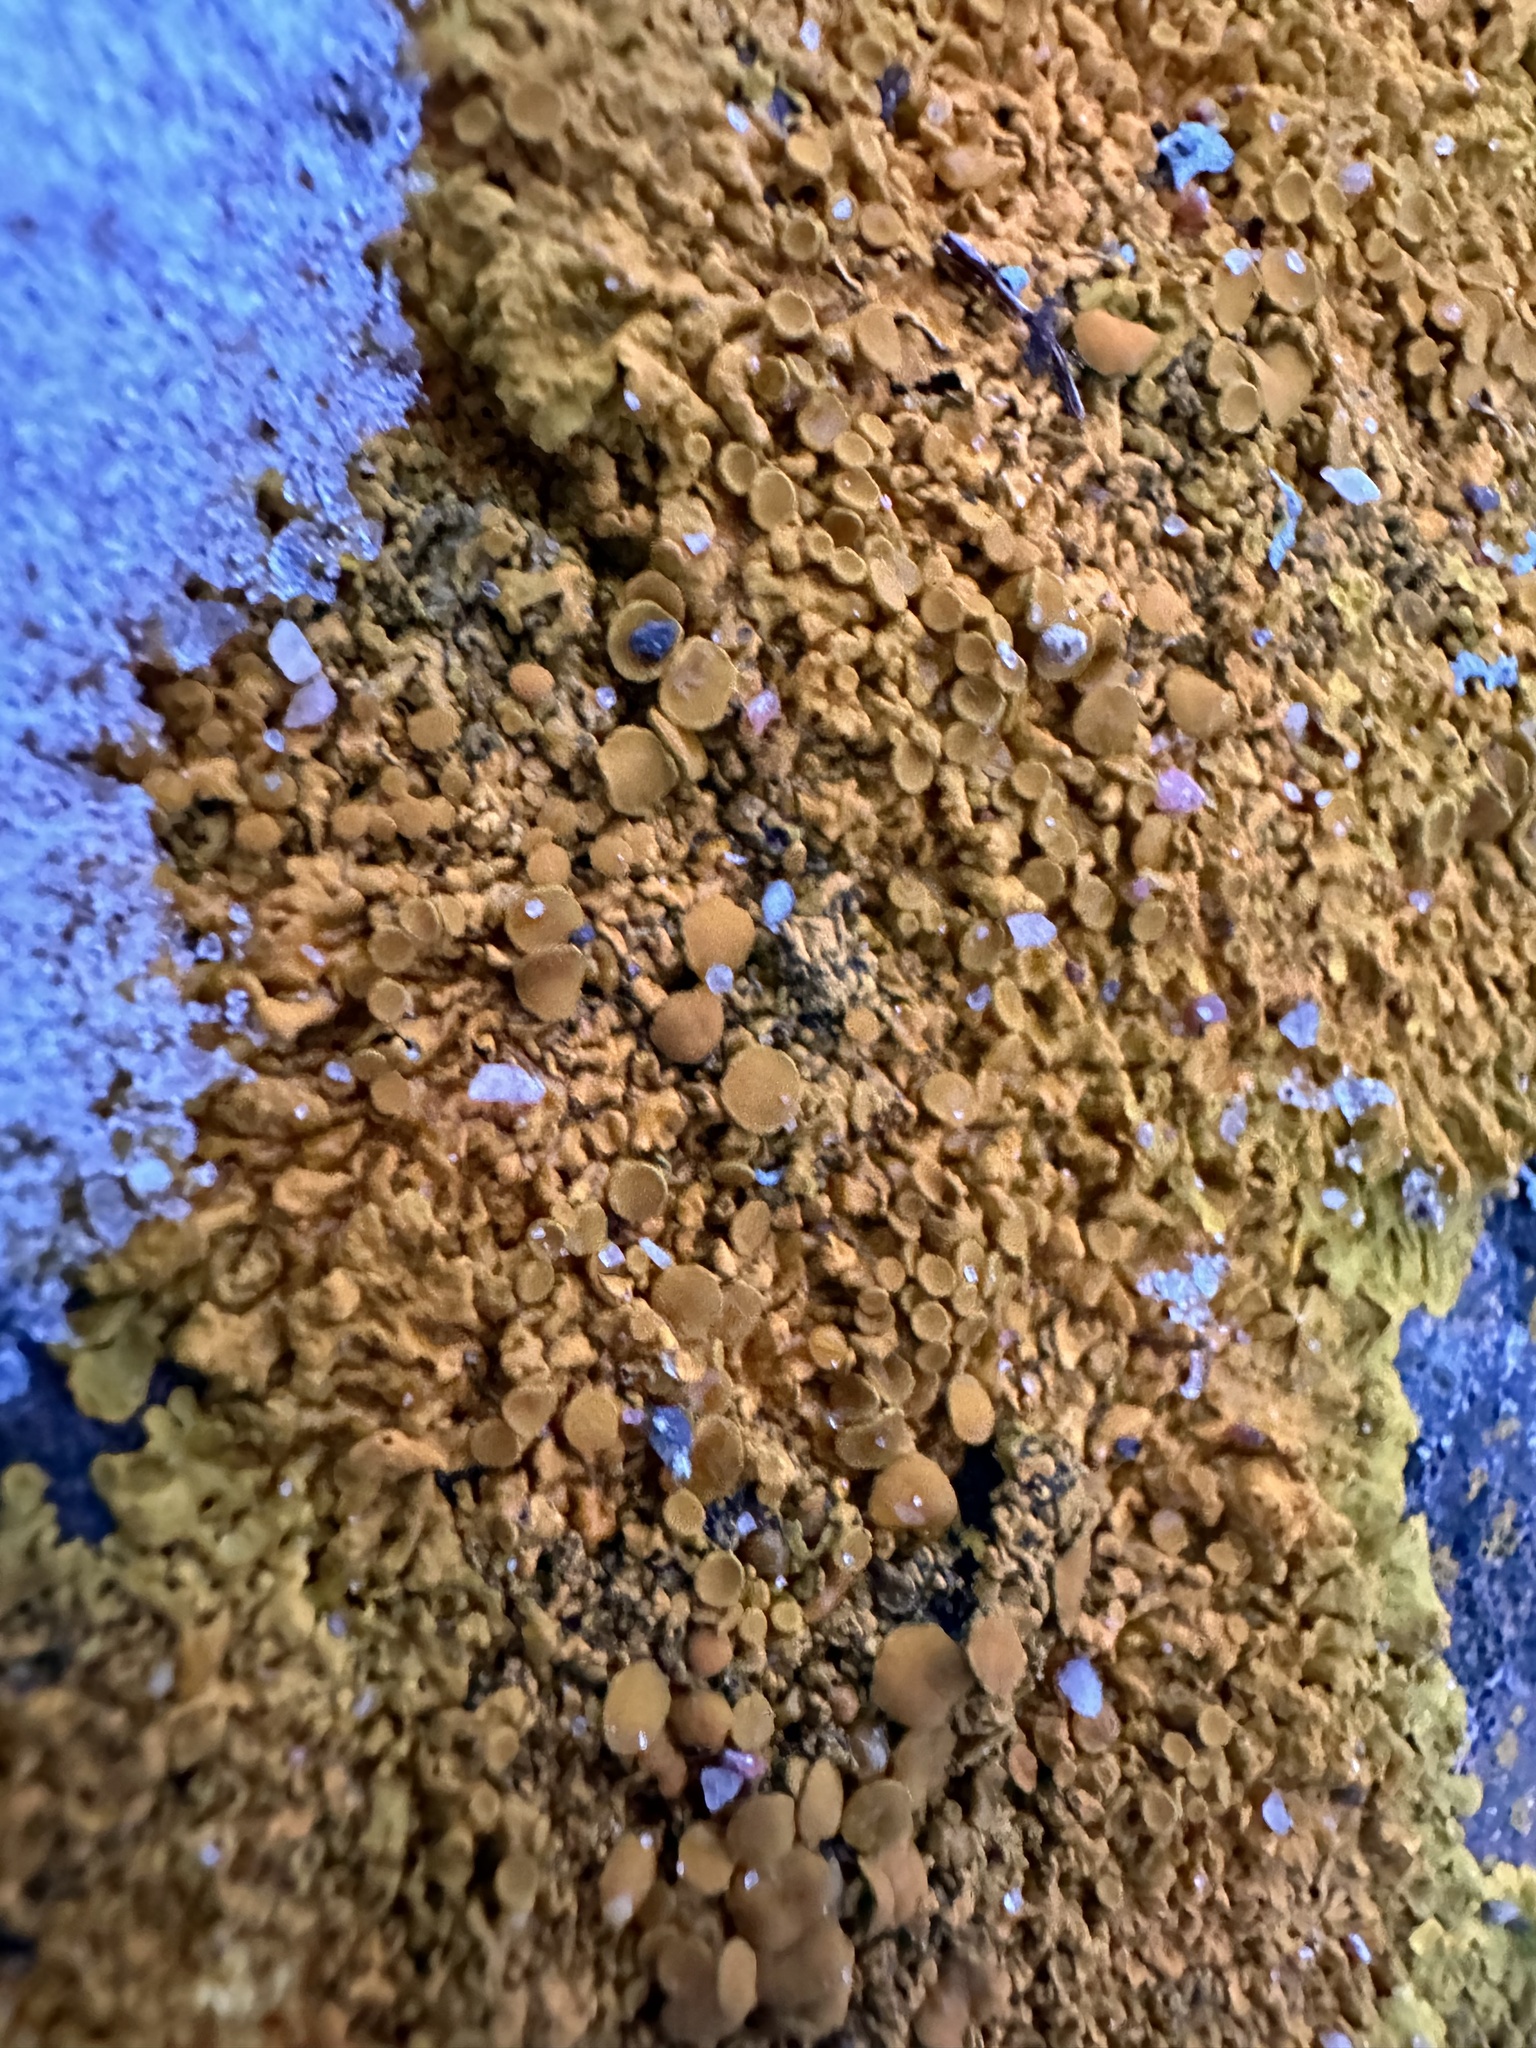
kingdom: Fungi
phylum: Ascomycota
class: Lecanoromycetes
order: Teloschistales
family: Teloschistaceae
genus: Xanthoria
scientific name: Xanthoria parietina
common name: Common orange lichen
